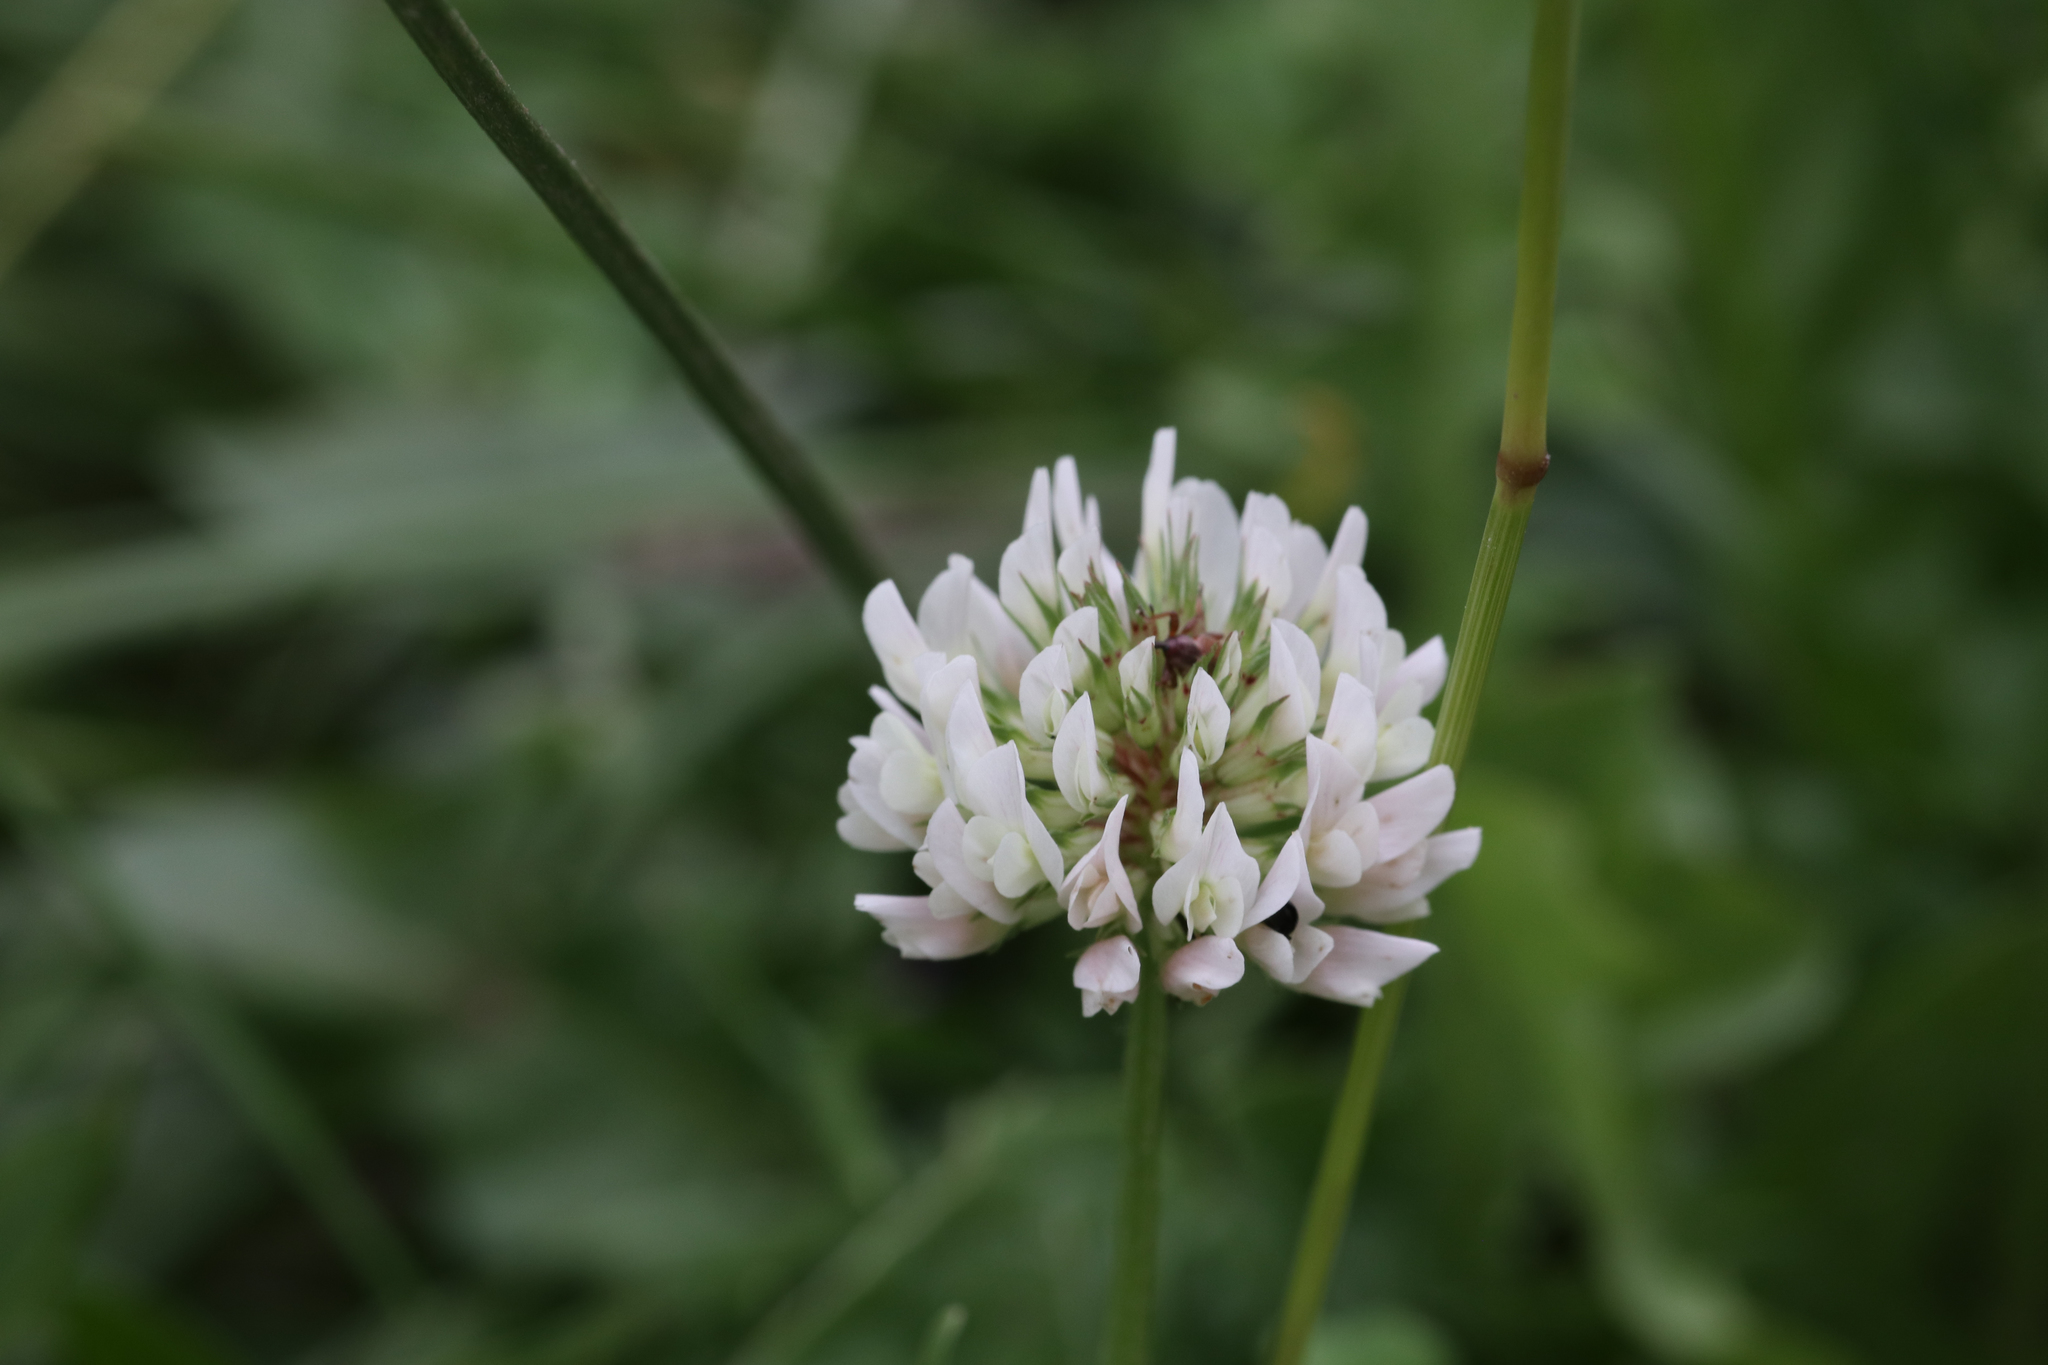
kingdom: Plantae
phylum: Tracheophyta
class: Magnoliopsida
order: Fabales
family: Fabaceae
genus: Trifolium
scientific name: Trifolium repens
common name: White clover
